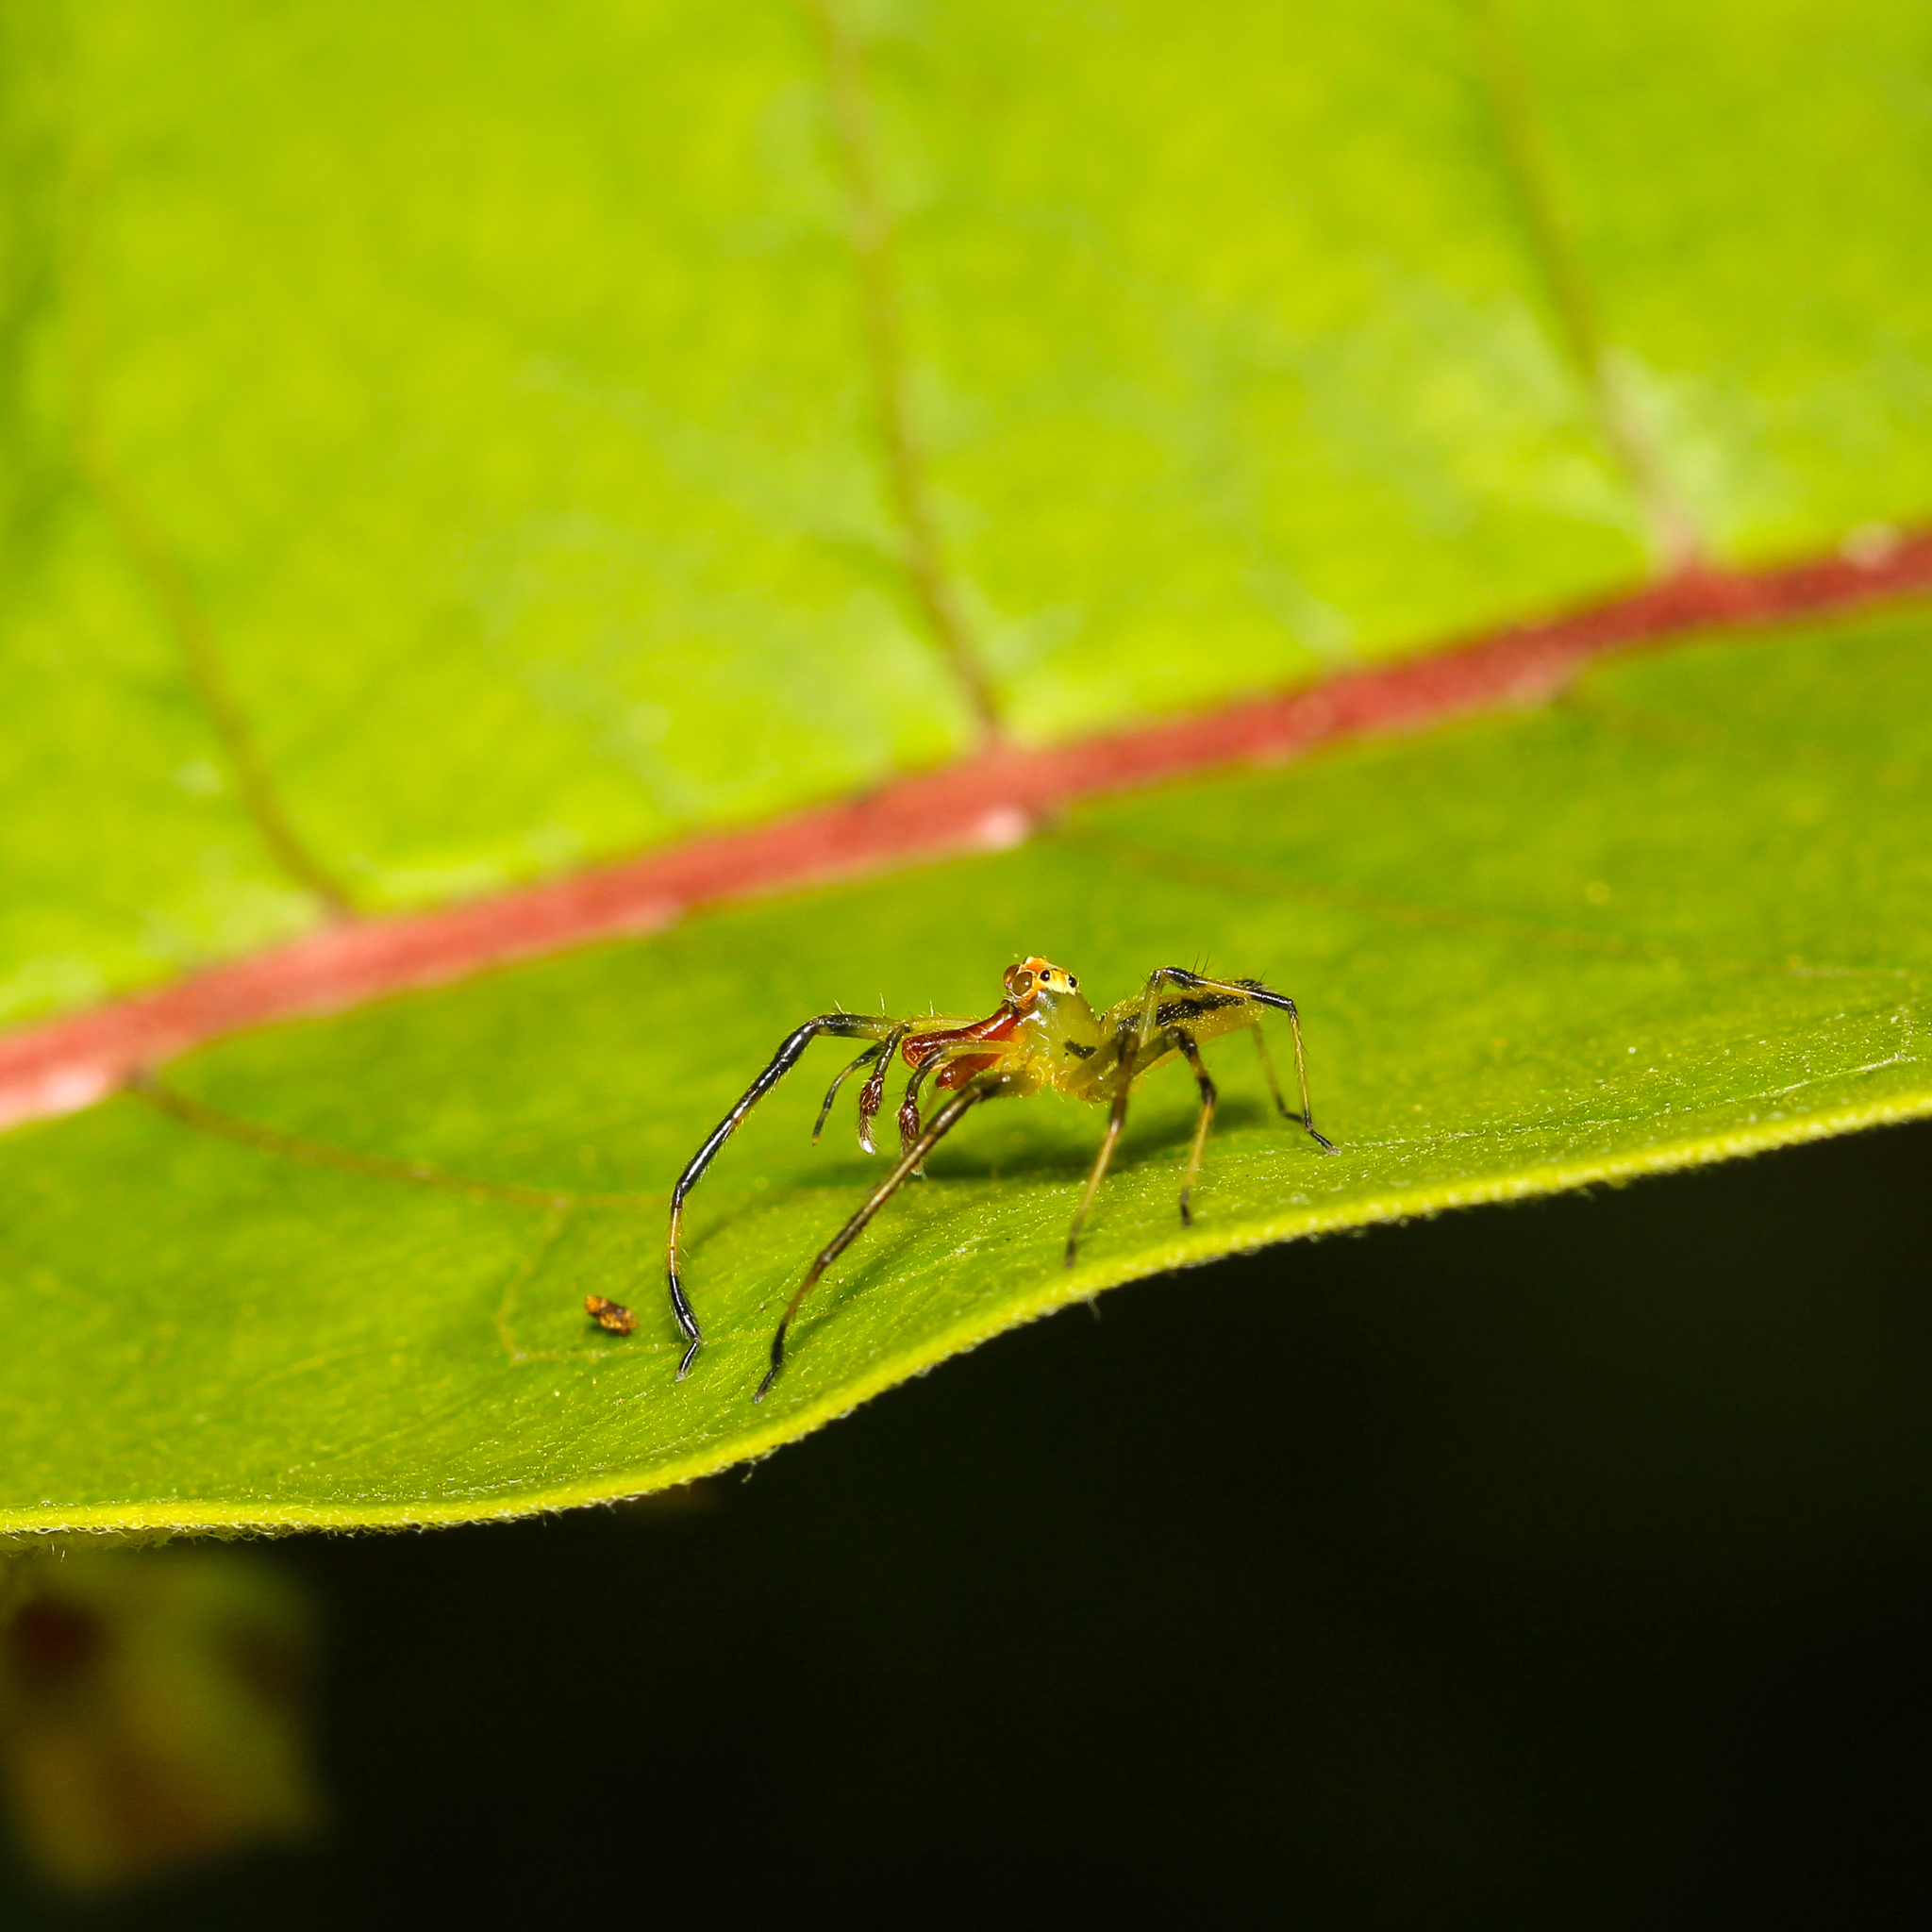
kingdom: Animalia
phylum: Arthropoda
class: Arachnida
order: Araneae
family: Salticidae
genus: Lyssomanes
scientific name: Lyssomanes viridis
